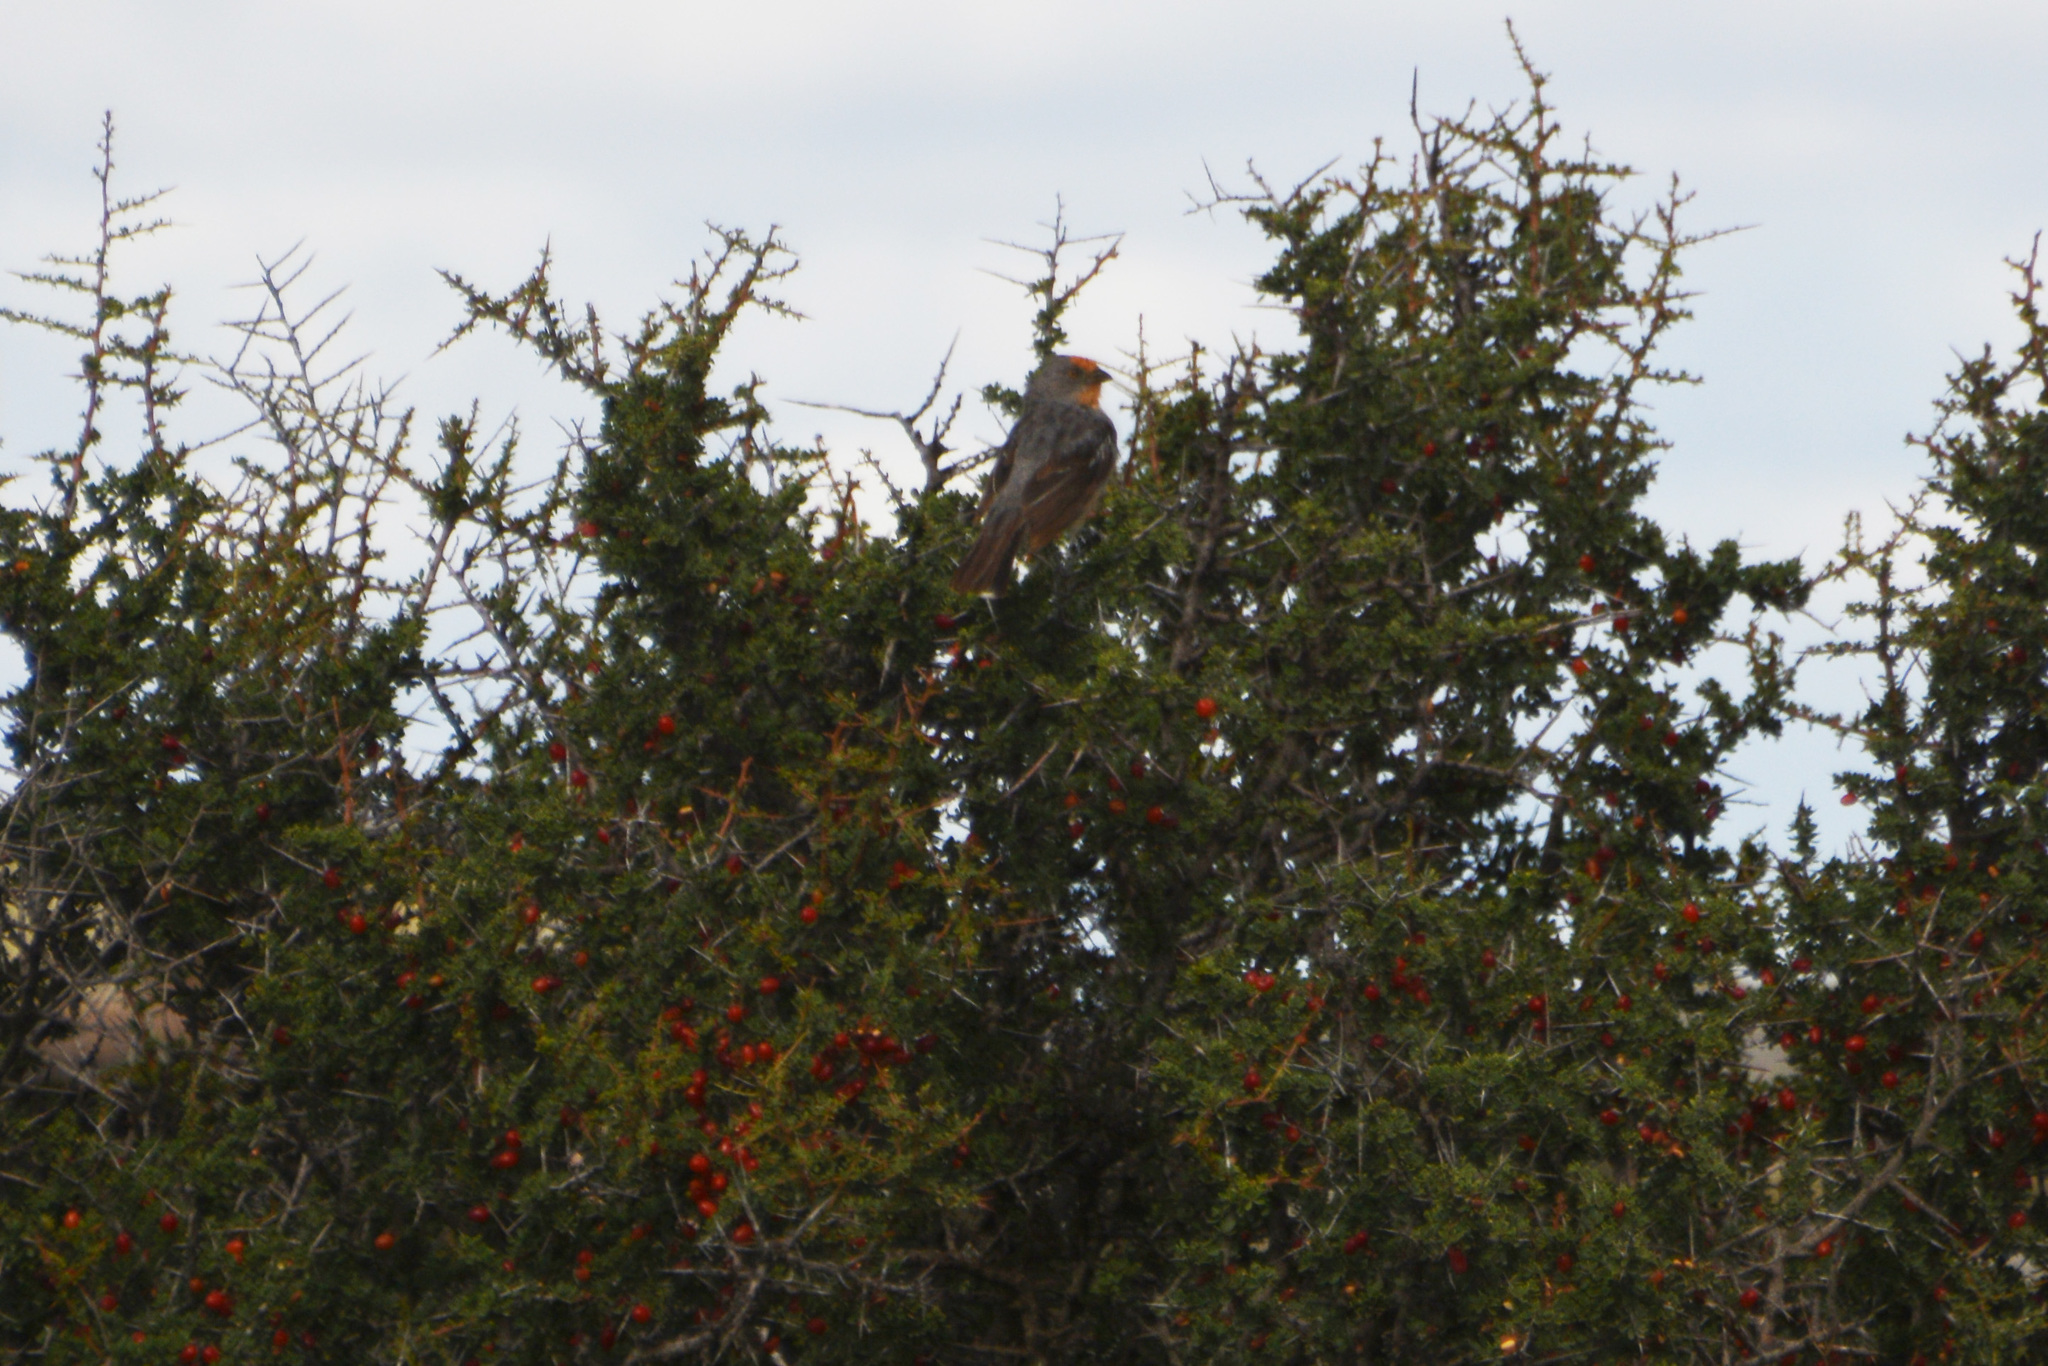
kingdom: Plantae
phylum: Tracheophyta
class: Magnoliopsida
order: Rosales
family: Rhamnaceae
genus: Condalia
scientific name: Condalia microphylla
